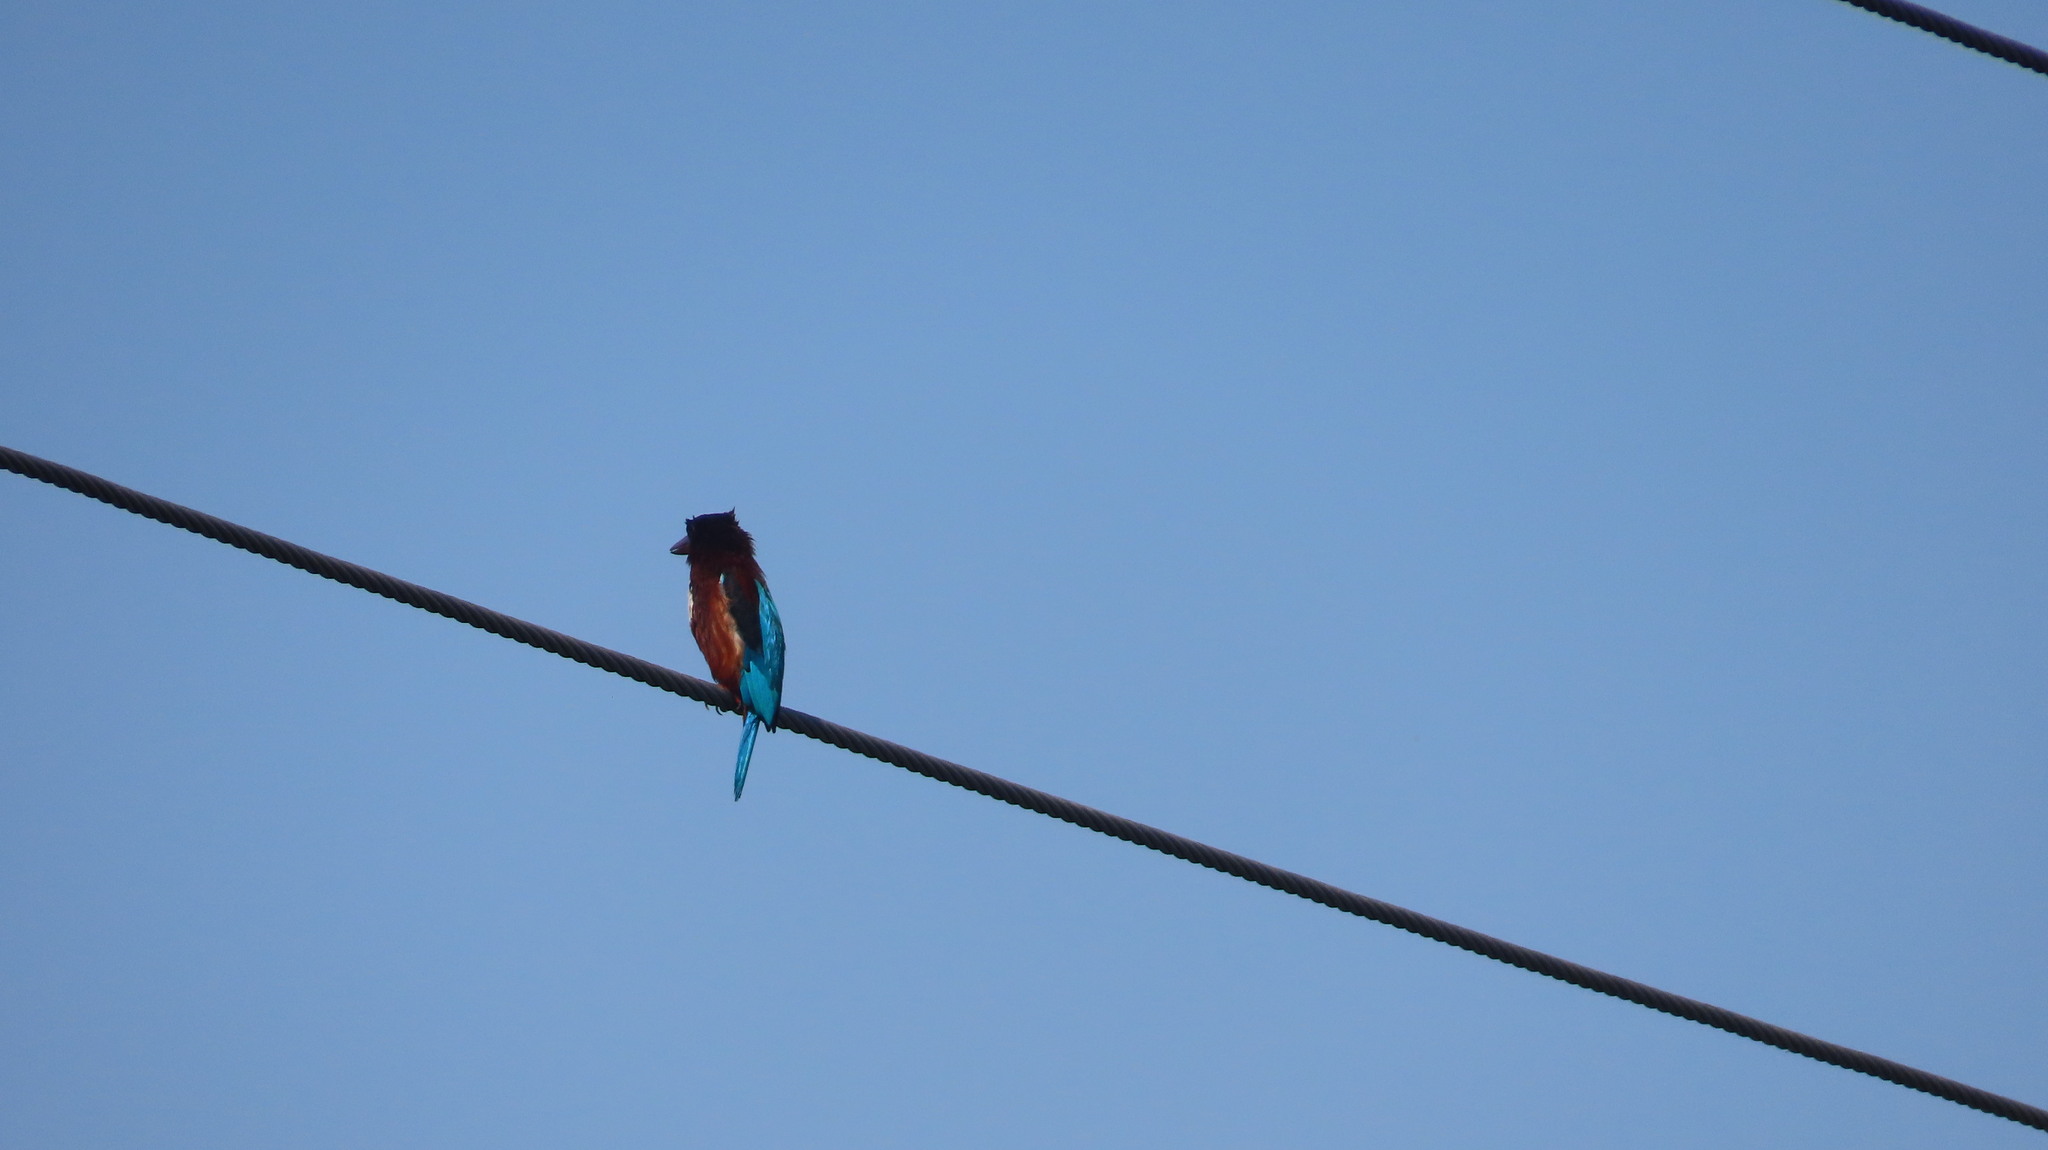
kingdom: Animalia
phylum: Chordata
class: Aves
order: Coraciiformes
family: Alcedinidae
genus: Halcyon
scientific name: Halcyon smyrnensis
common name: White-throated kingfisher
